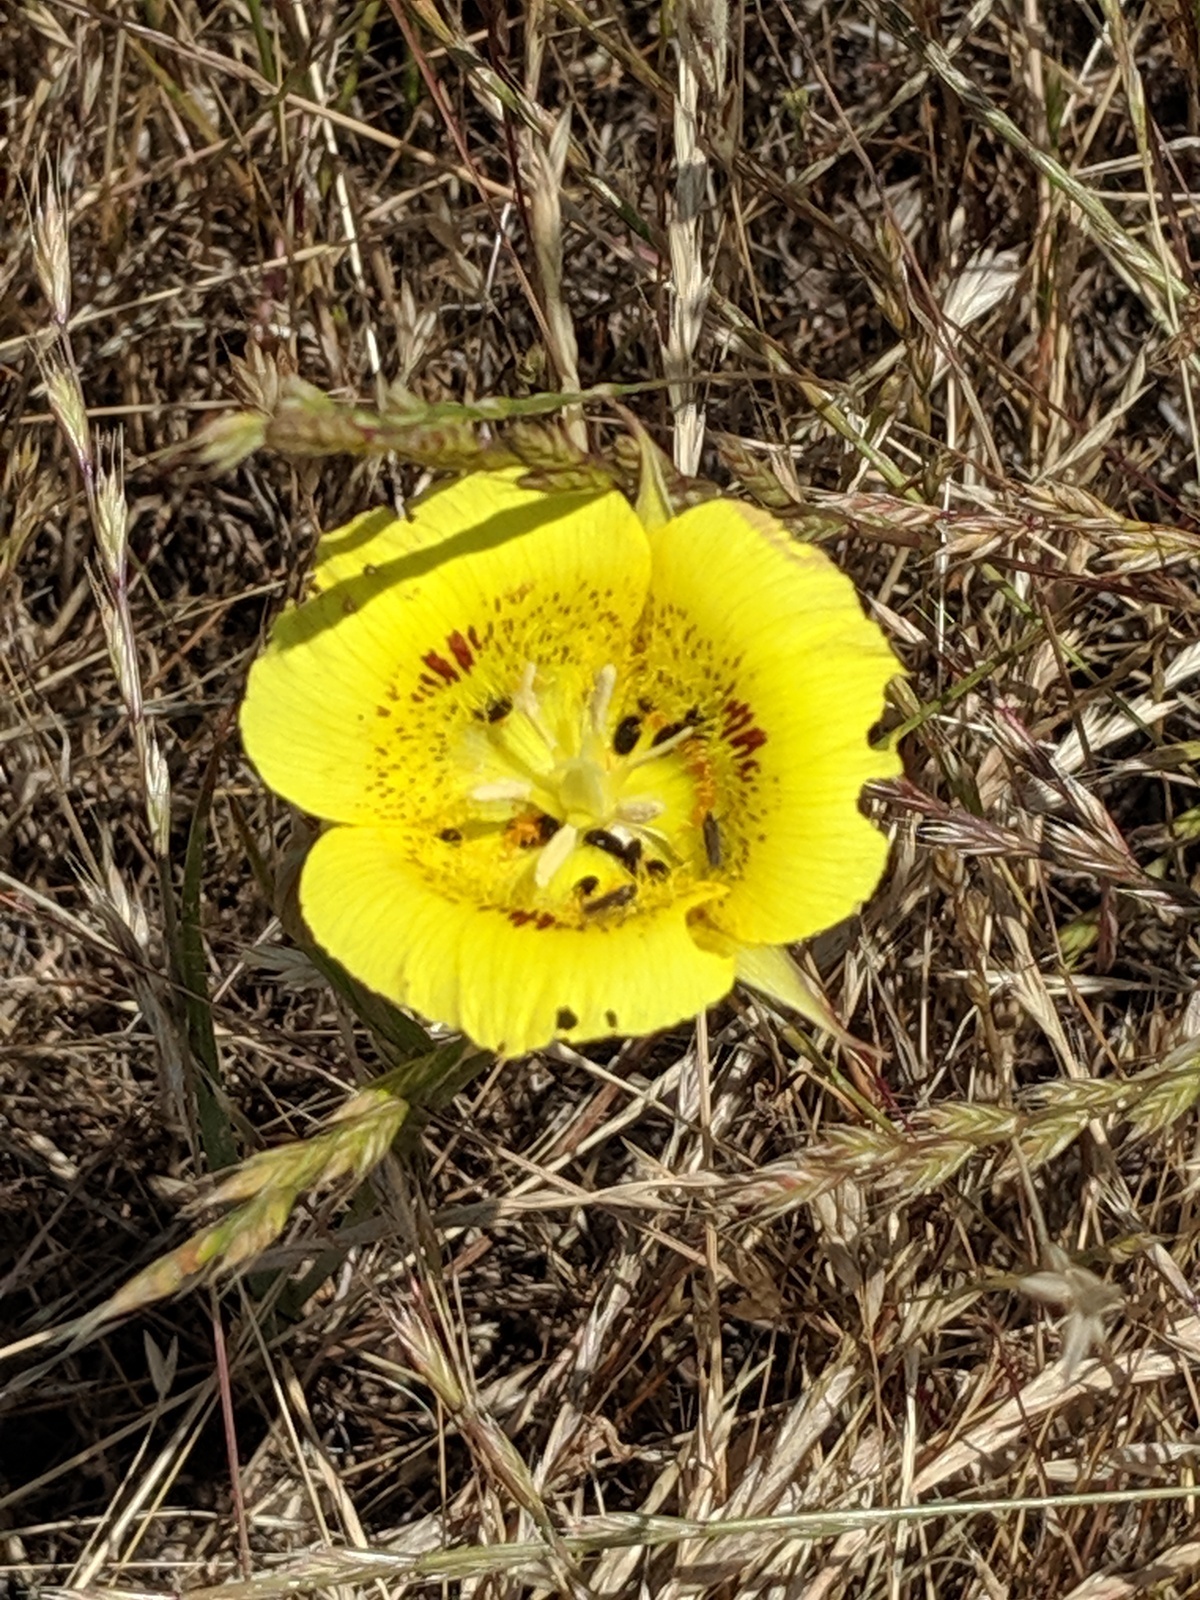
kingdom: Plantae
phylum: Tracheophyta
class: Liliopsida
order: Liliales
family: Liliaceae
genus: Calochortus
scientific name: Calochortus luteus
